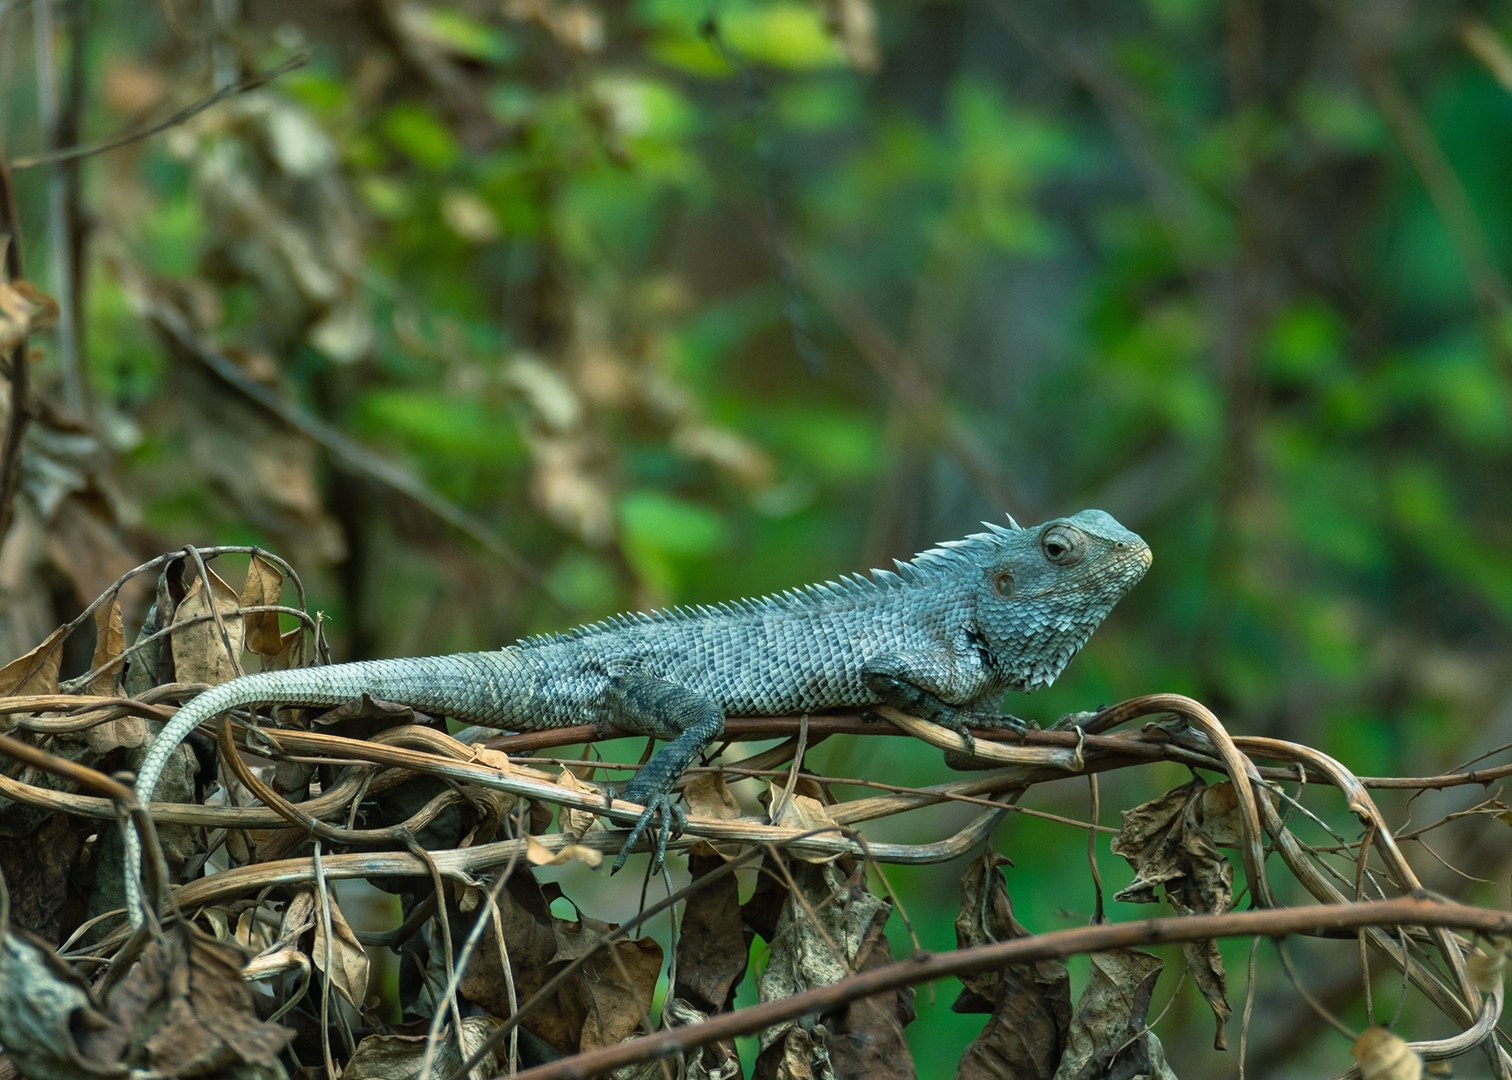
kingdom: Animalia
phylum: Chordata
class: Squamata
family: Agamidae
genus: Calotes
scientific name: Calotes versicolor
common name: Oriental garden lizard
